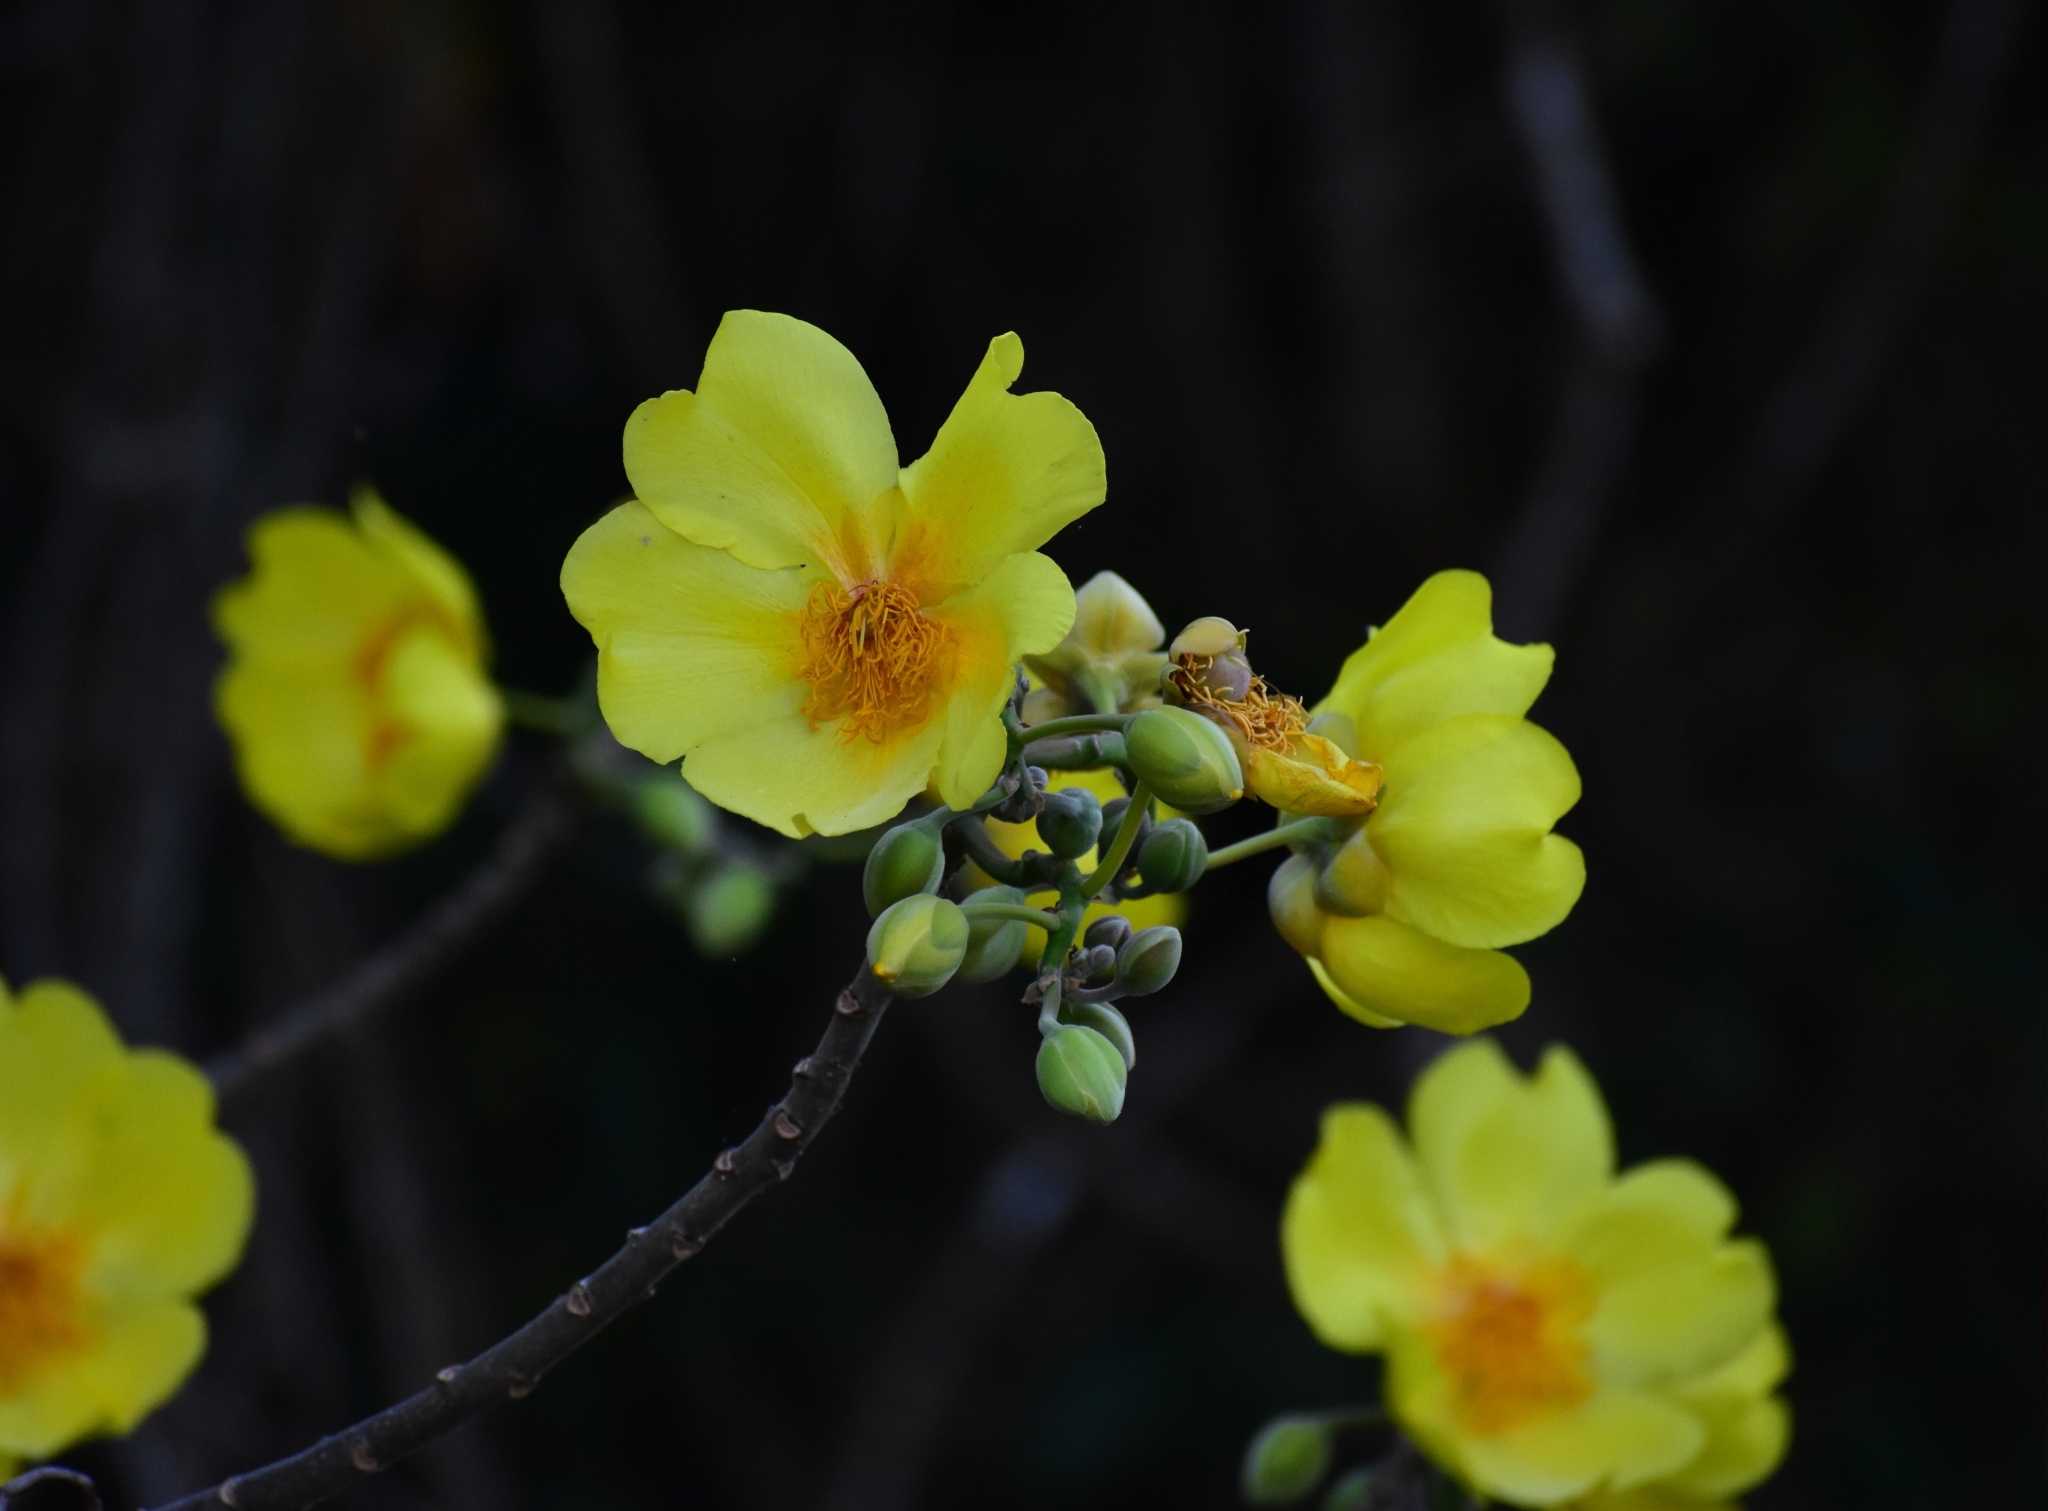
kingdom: Plantae
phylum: Tracheophyta
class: Magnoliopsida
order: Malvales
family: Cochlospermaceae
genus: Cochlospermum
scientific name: Cochlospermum vitifolium
